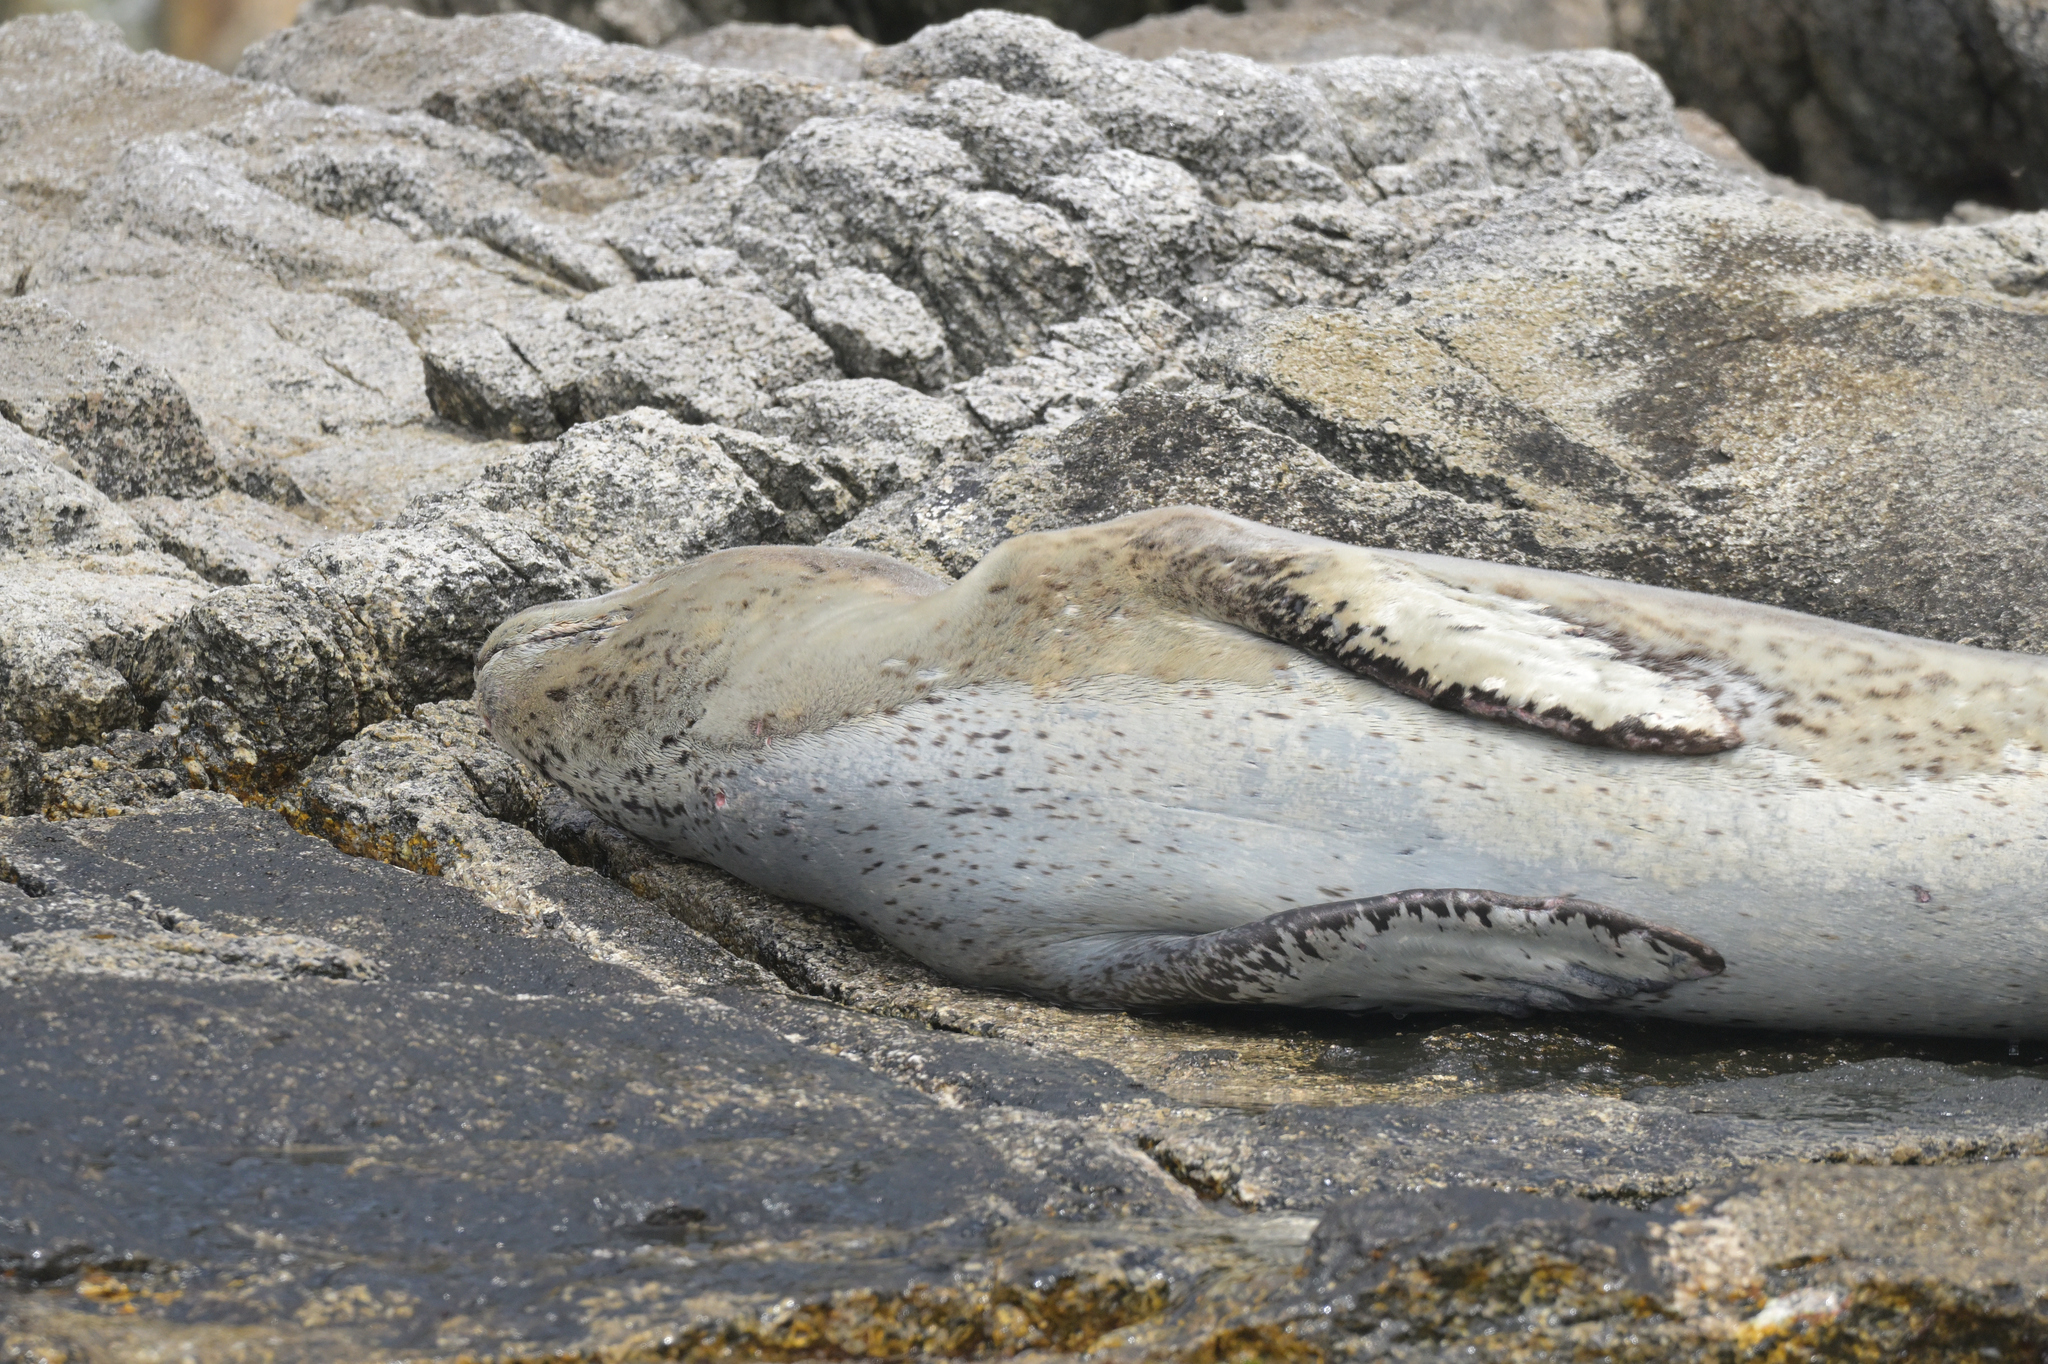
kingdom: Animalia
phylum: Chordata
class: Mammalia
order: Carnivora
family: Phocidae
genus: Hydrurga
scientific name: Hydrurga leptonyx
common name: Leopard seal
